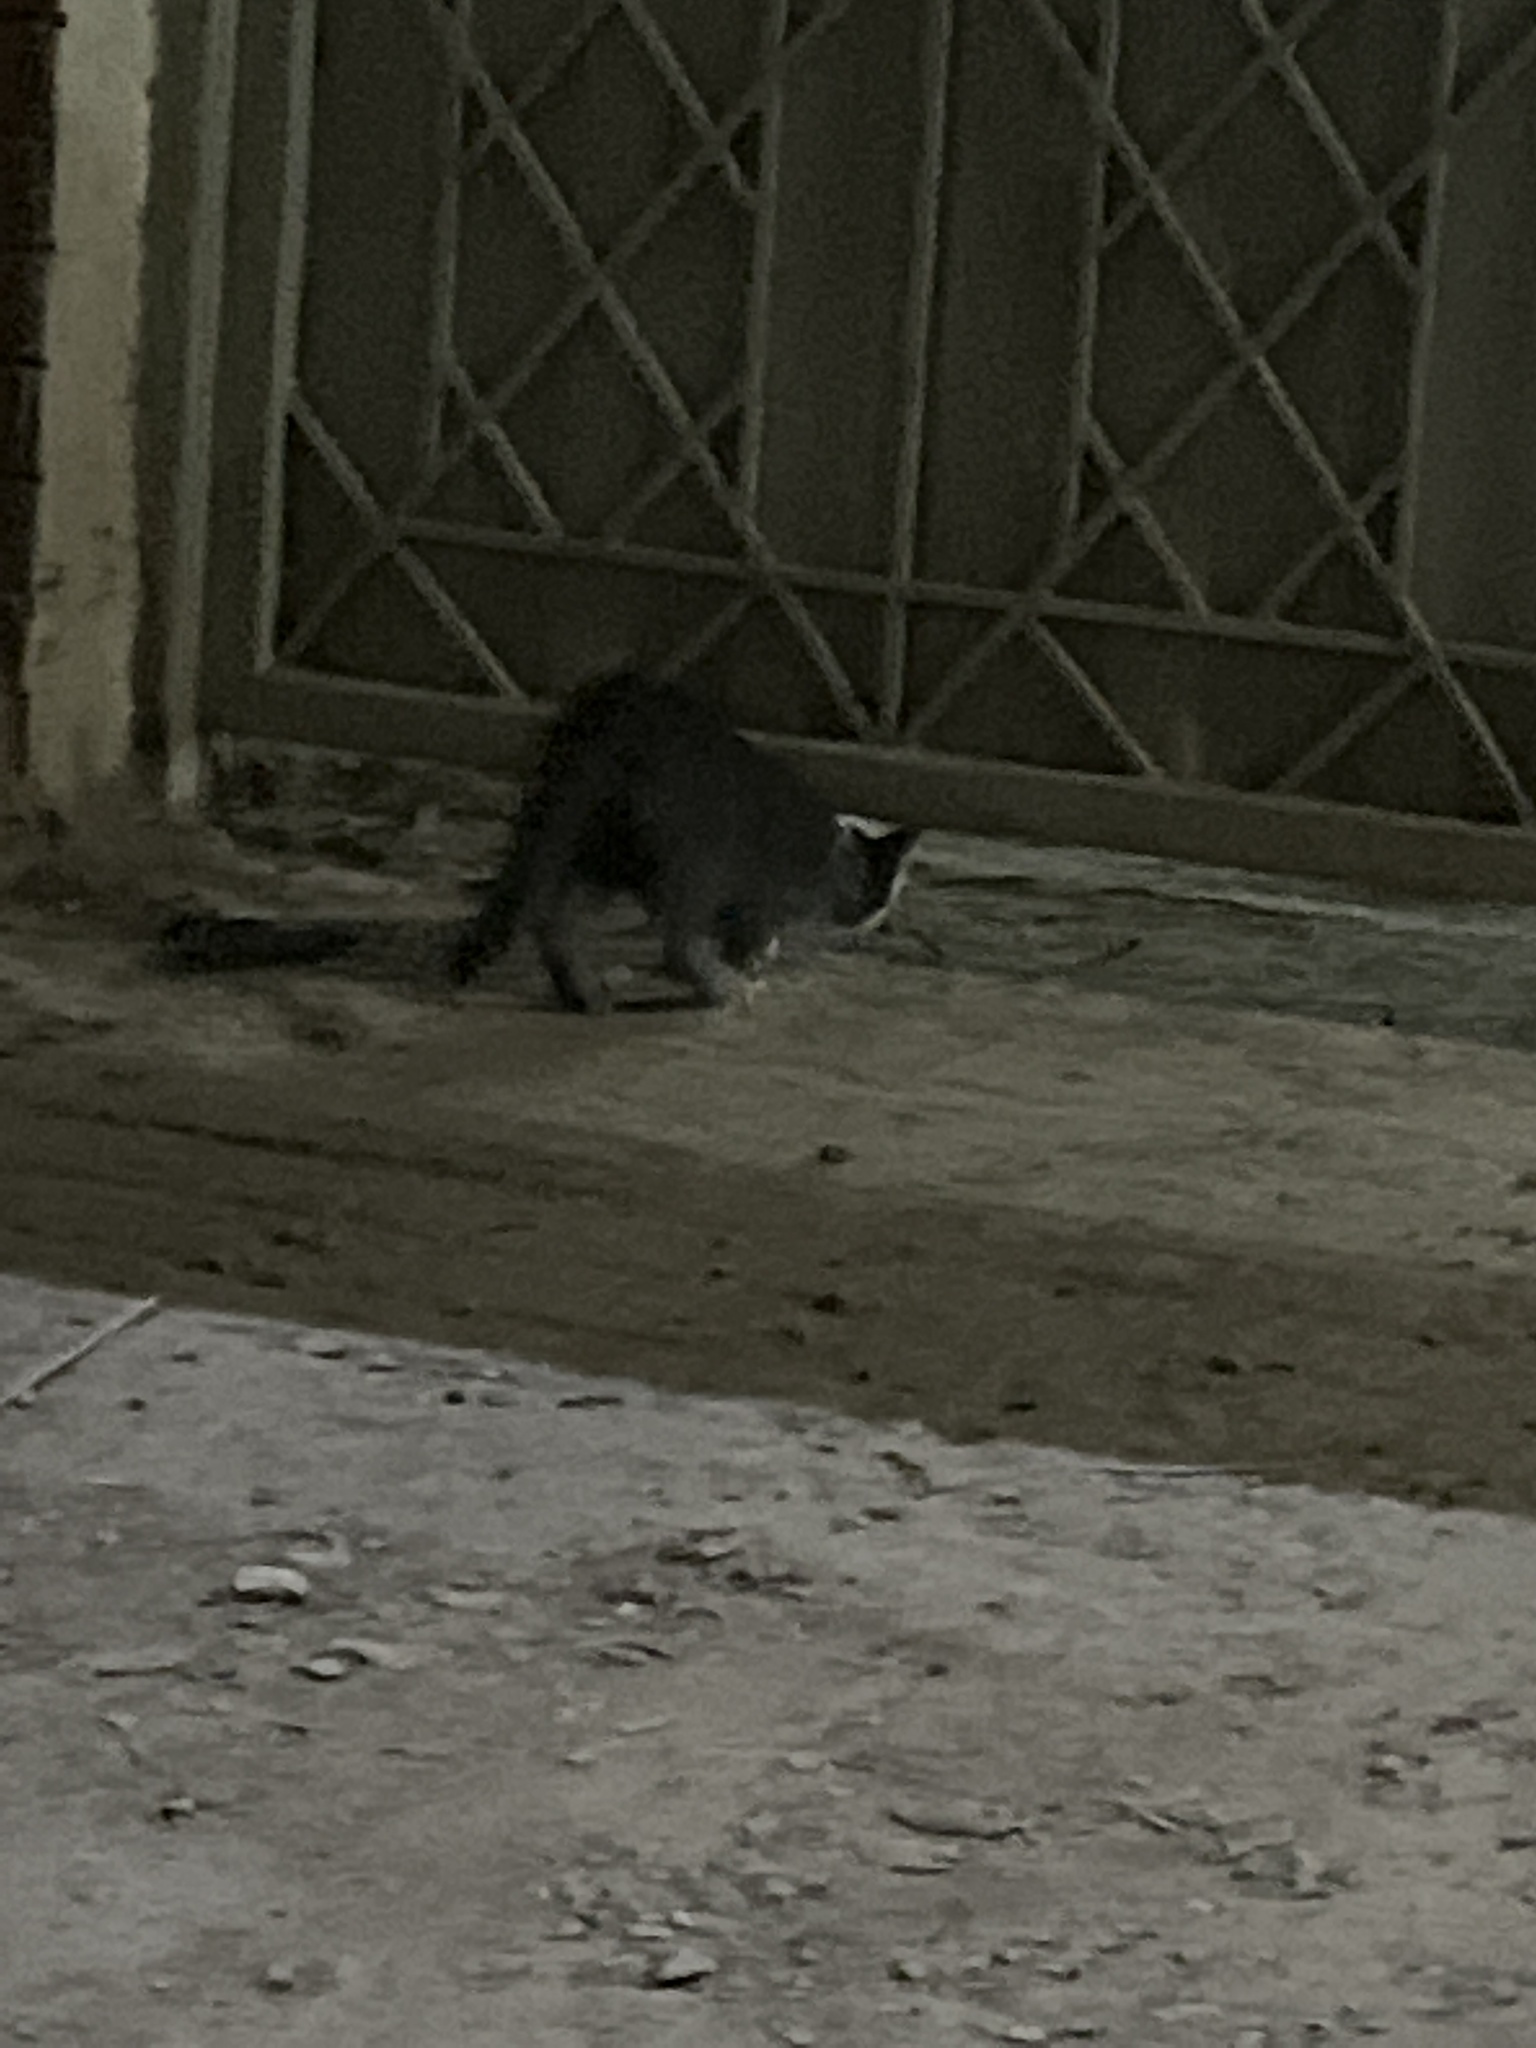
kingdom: Animalia
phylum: Chordata
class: Mammalia
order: Carnivora
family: Felidae
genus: Felis
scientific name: Felis catus
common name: Domestic cat
